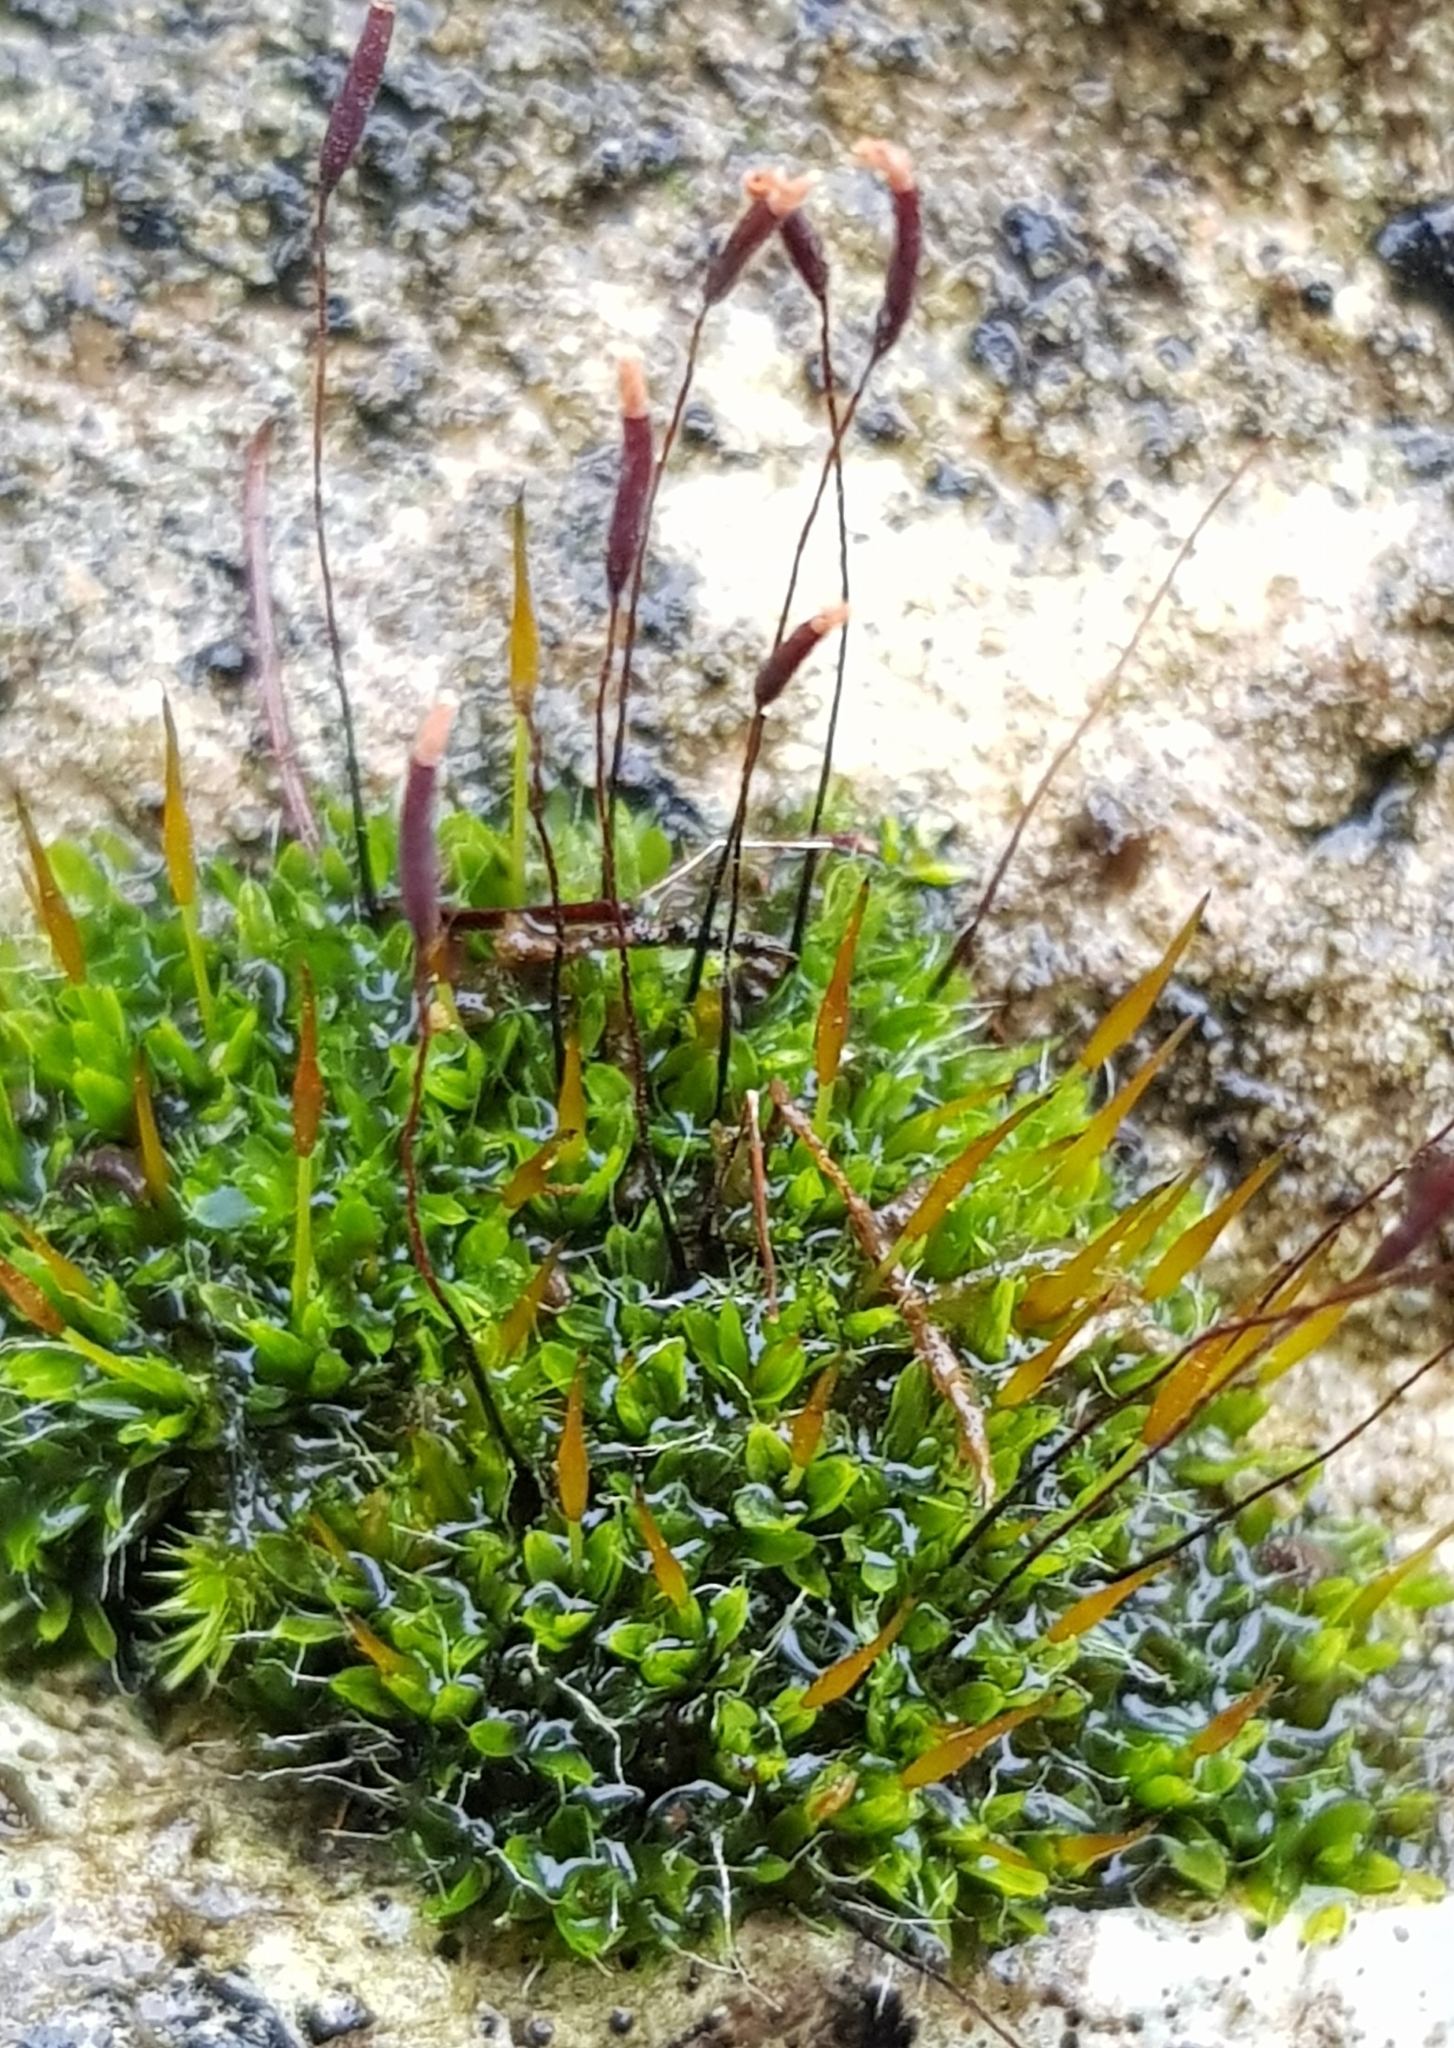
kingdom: Plantae
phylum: Bryophyta
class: Bryopsida
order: Pottiales
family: Pottiaceae
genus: Tortula
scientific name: Tortula muralis
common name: Wall screw-moss
